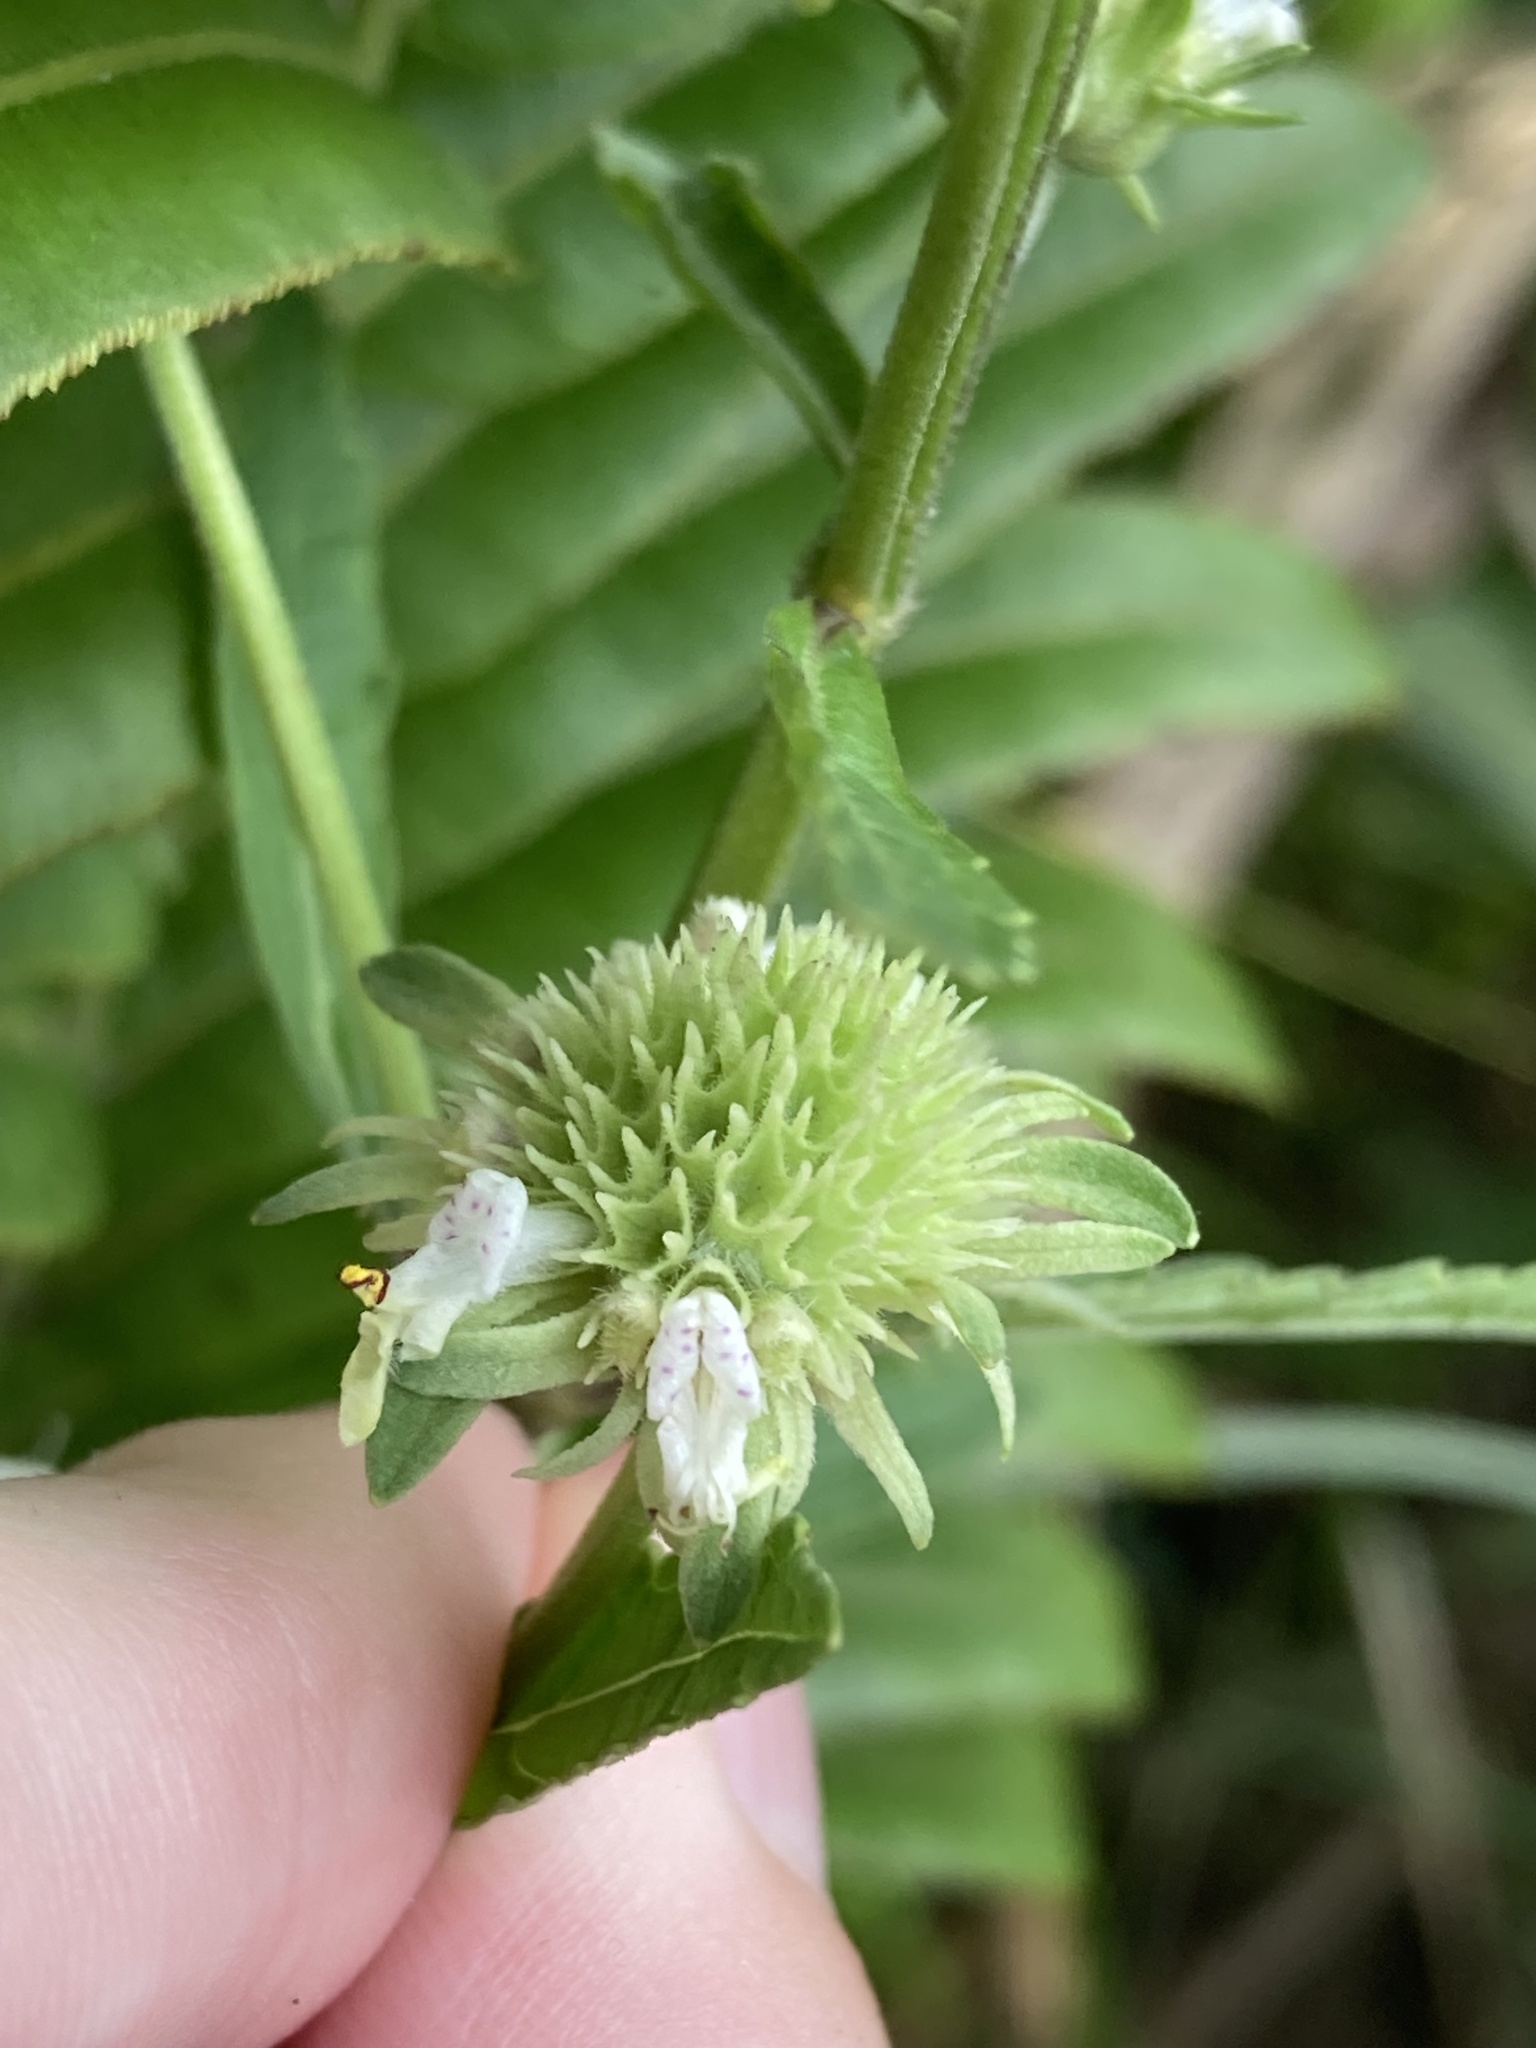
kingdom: Plantae
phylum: Tracheophyta
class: Magnoliopsida
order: Lamiales
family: Lamiaceae
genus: Hyptis
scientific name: Hyptis alata
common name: Cluster bush-mint
